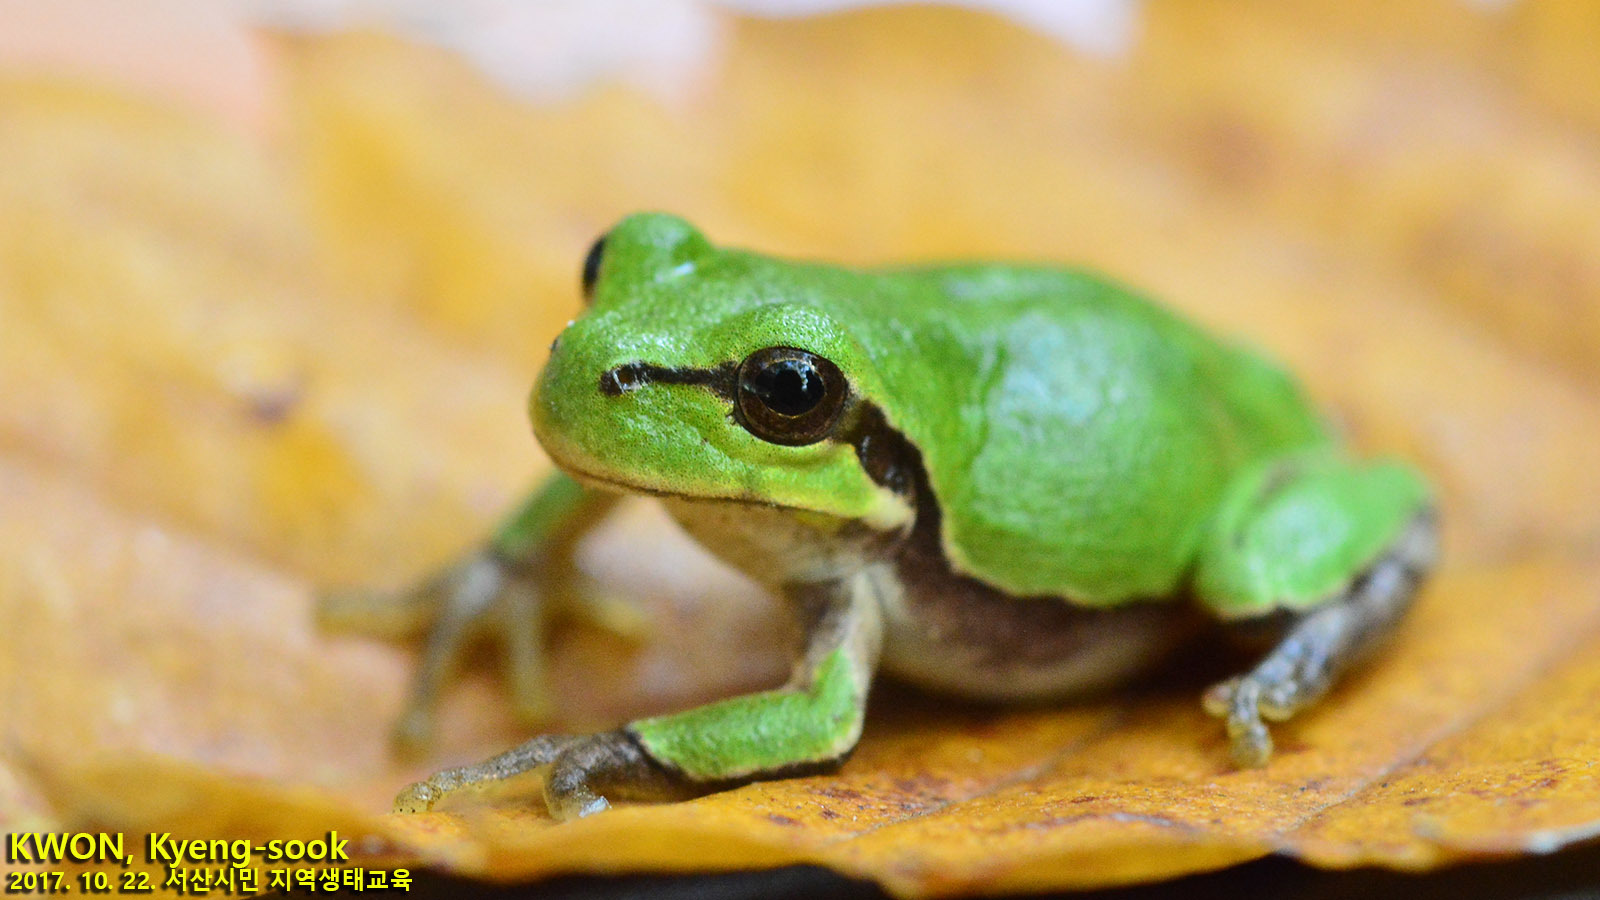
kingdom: Animalia
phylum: Chordata
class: Amphibia
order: Anura
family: Hylidae
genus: Dryophytes
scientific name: Dryophytes japonicus
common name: Japanese treefrog
